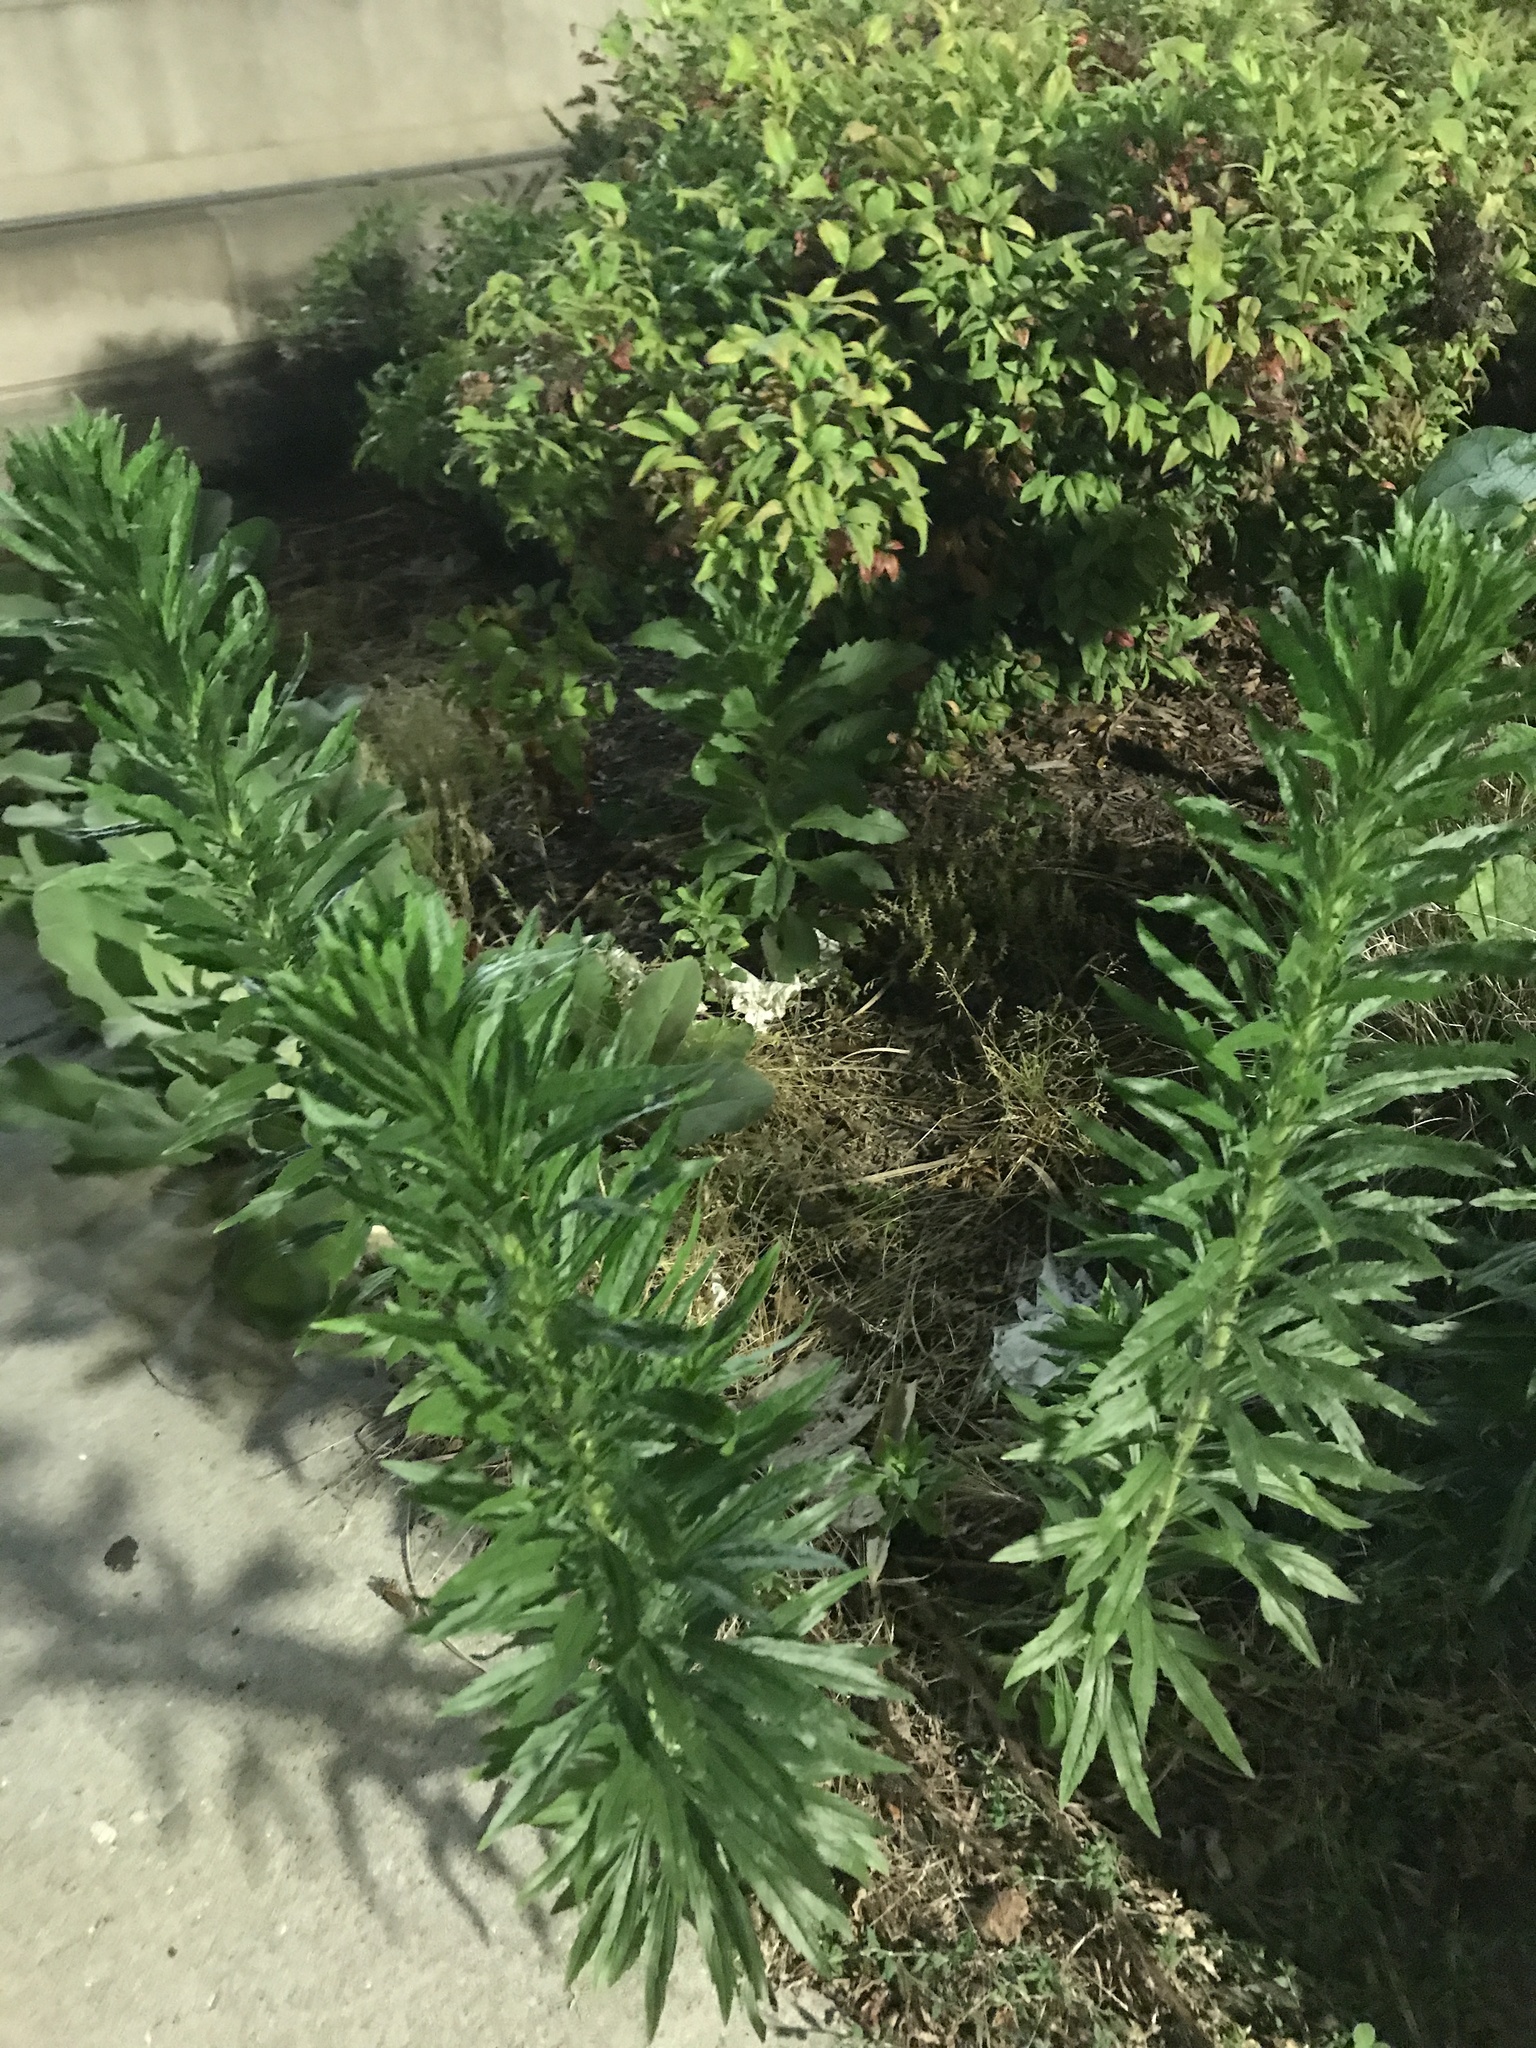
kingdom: Plantae
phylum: Tracheophyta
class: Magnoliopsida
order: Asterales
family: Asteraceae
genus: Erigeron
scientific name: Erigeron canadensis
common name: Canadian fleabane
